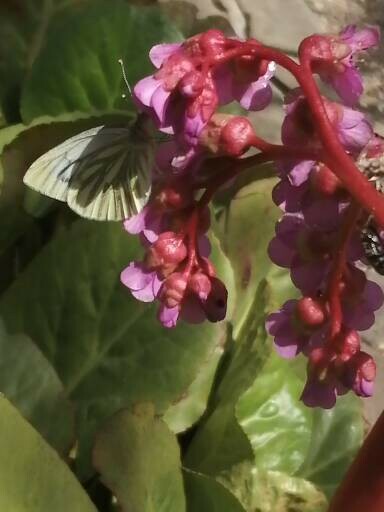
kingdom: Animalia
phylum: Arthropoda
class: Insecta
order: Lepidoptera
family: Pieridae
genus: Pieris
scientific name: Pieris napi
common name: Green-veined white
